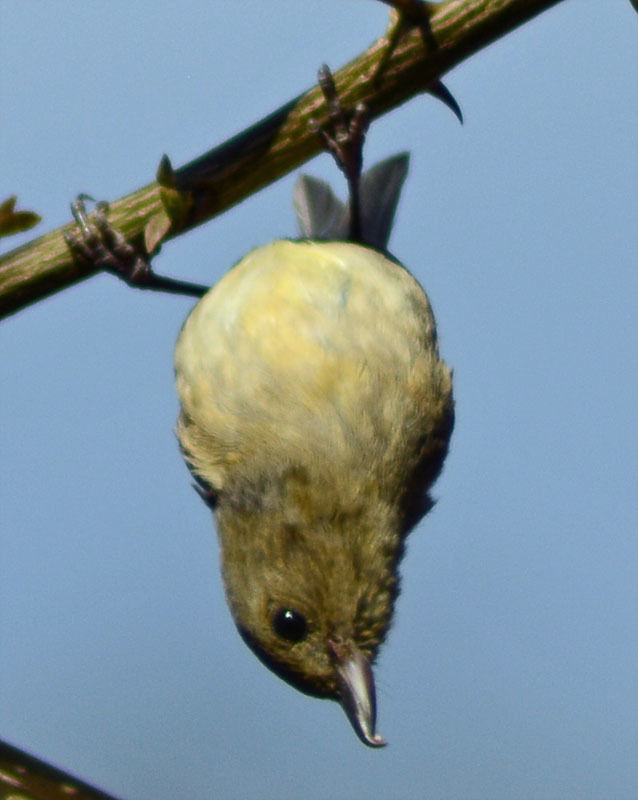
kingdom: Animalia
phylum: Chordata
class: Aves
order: Passeriformes
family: Thraupidae
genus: Diglossa
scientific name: Diglossa baritula
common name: Cinnamon-bellied flowerpiercer
